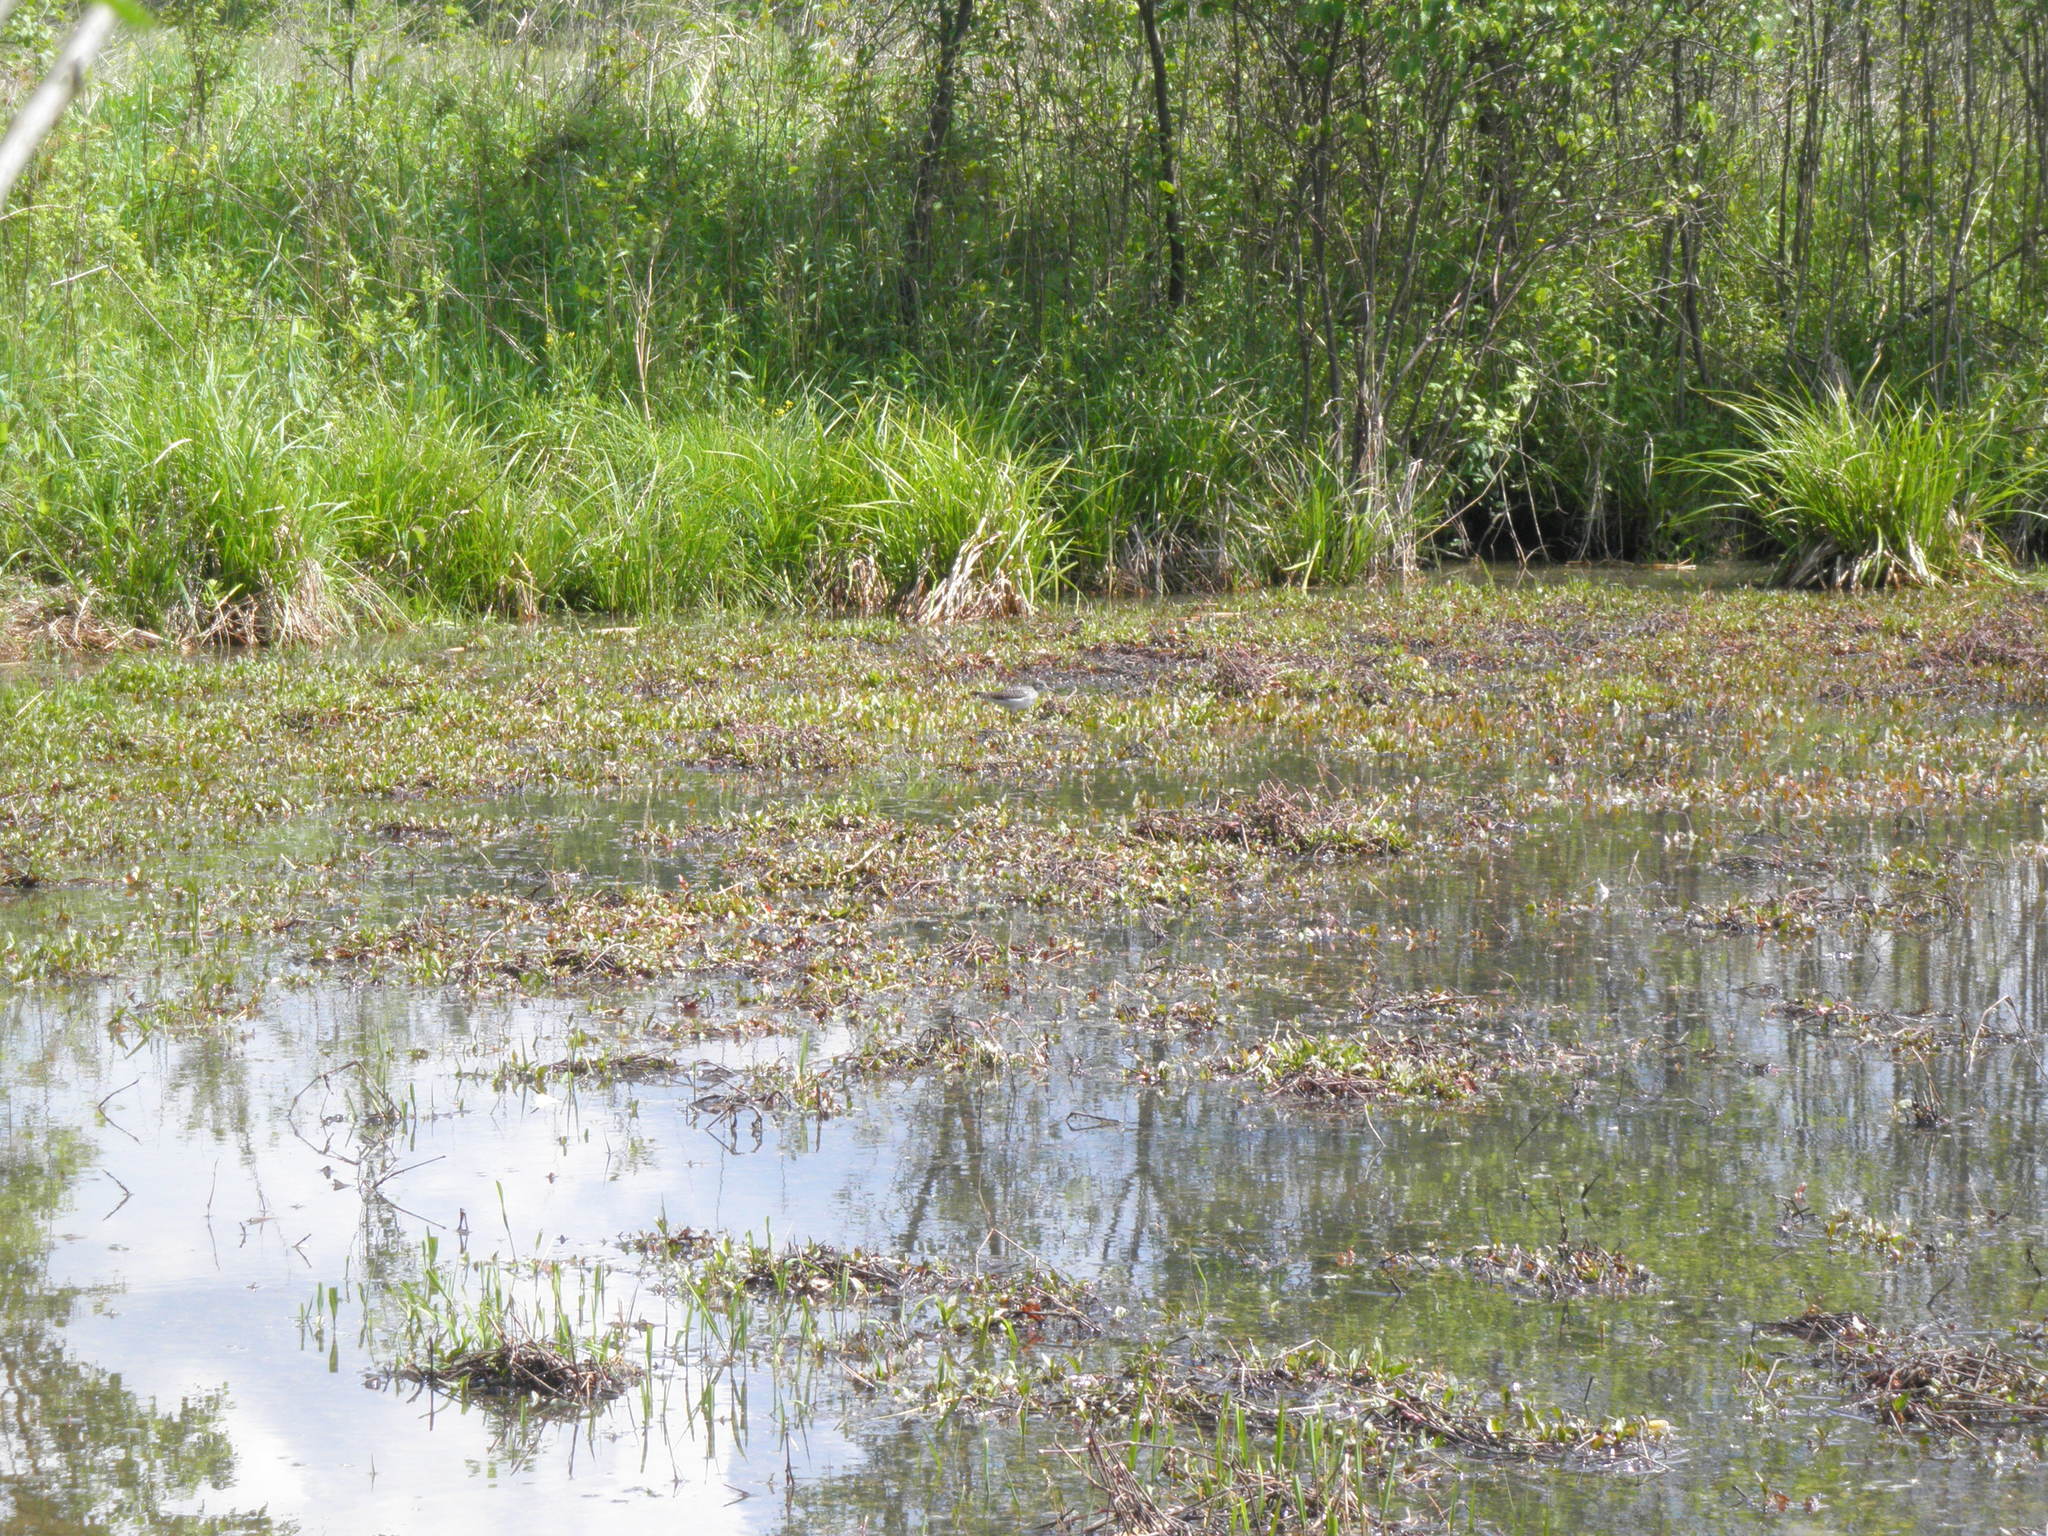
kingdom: Animalia
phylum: Chordata
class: Aves
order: Charadriiformes
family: Scolopacidae
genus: Tringa
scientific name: Tringa solitaria
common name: Solitary sandpiper
